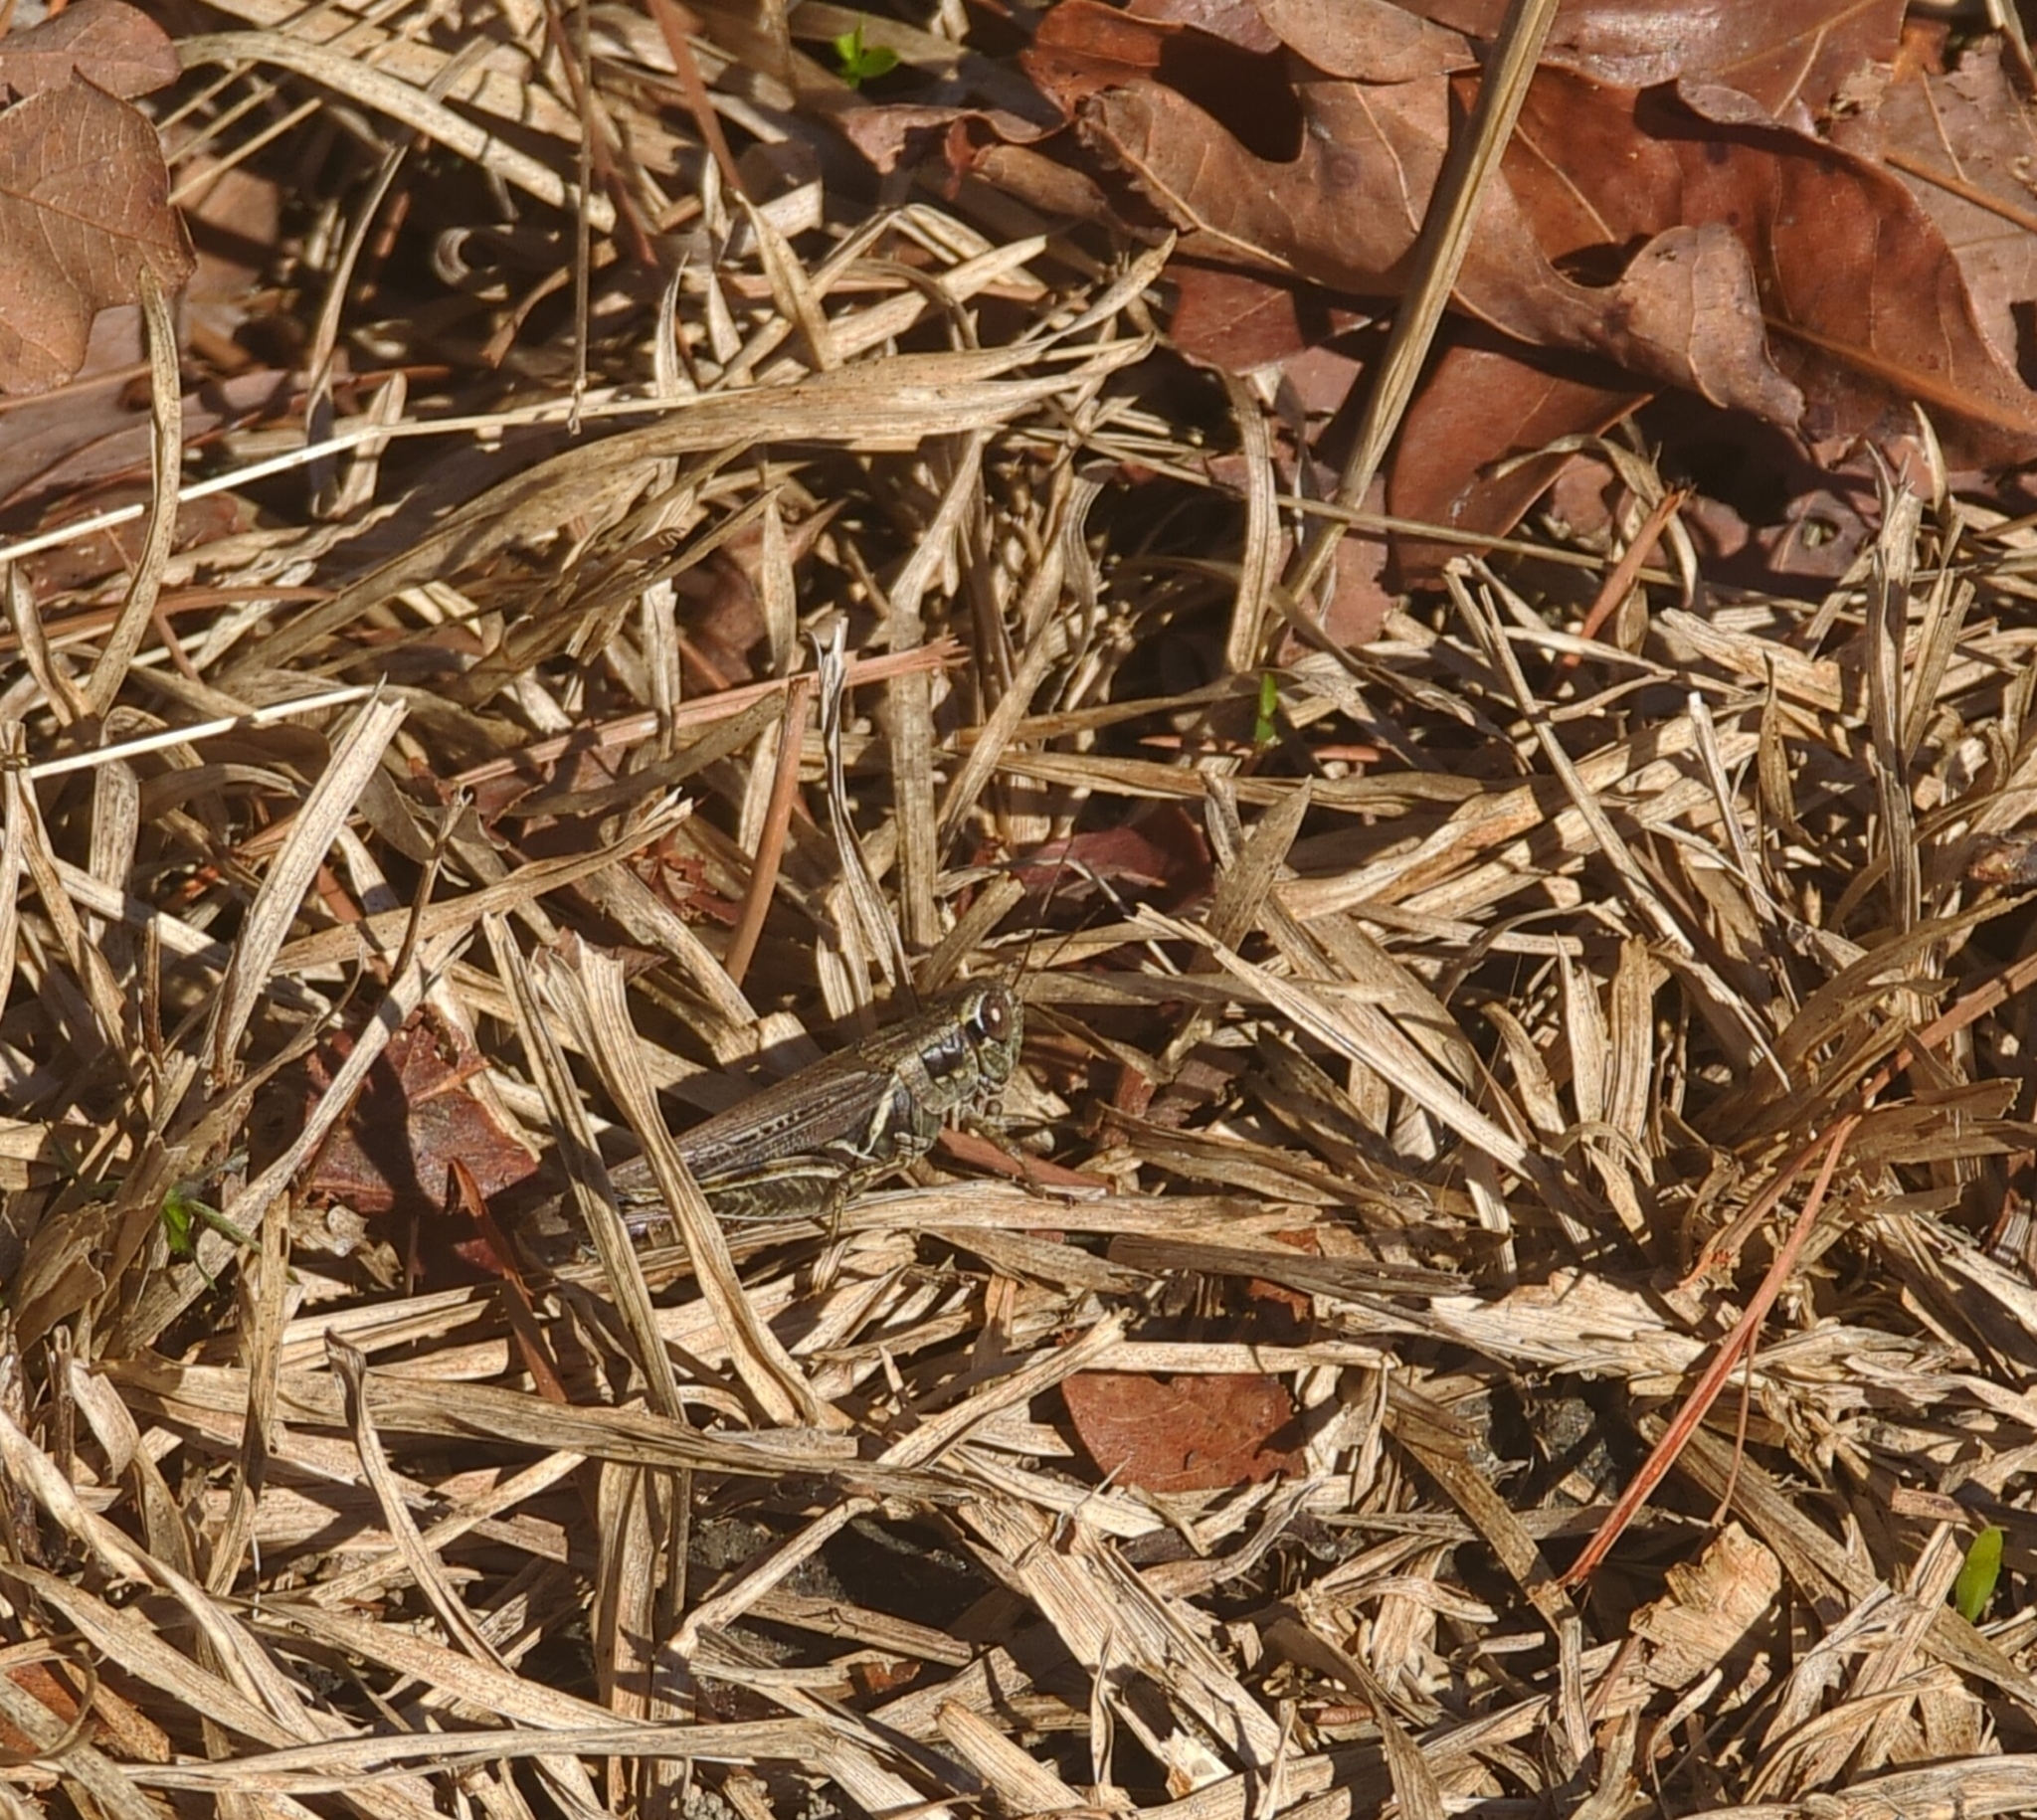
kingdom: Animalia
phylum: Arthropoda
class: Insecta
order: Orthoptera
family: Acrididae
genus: Melanoplus
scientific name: Melanoplus sanguinipes
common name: Migratory grasshopper
